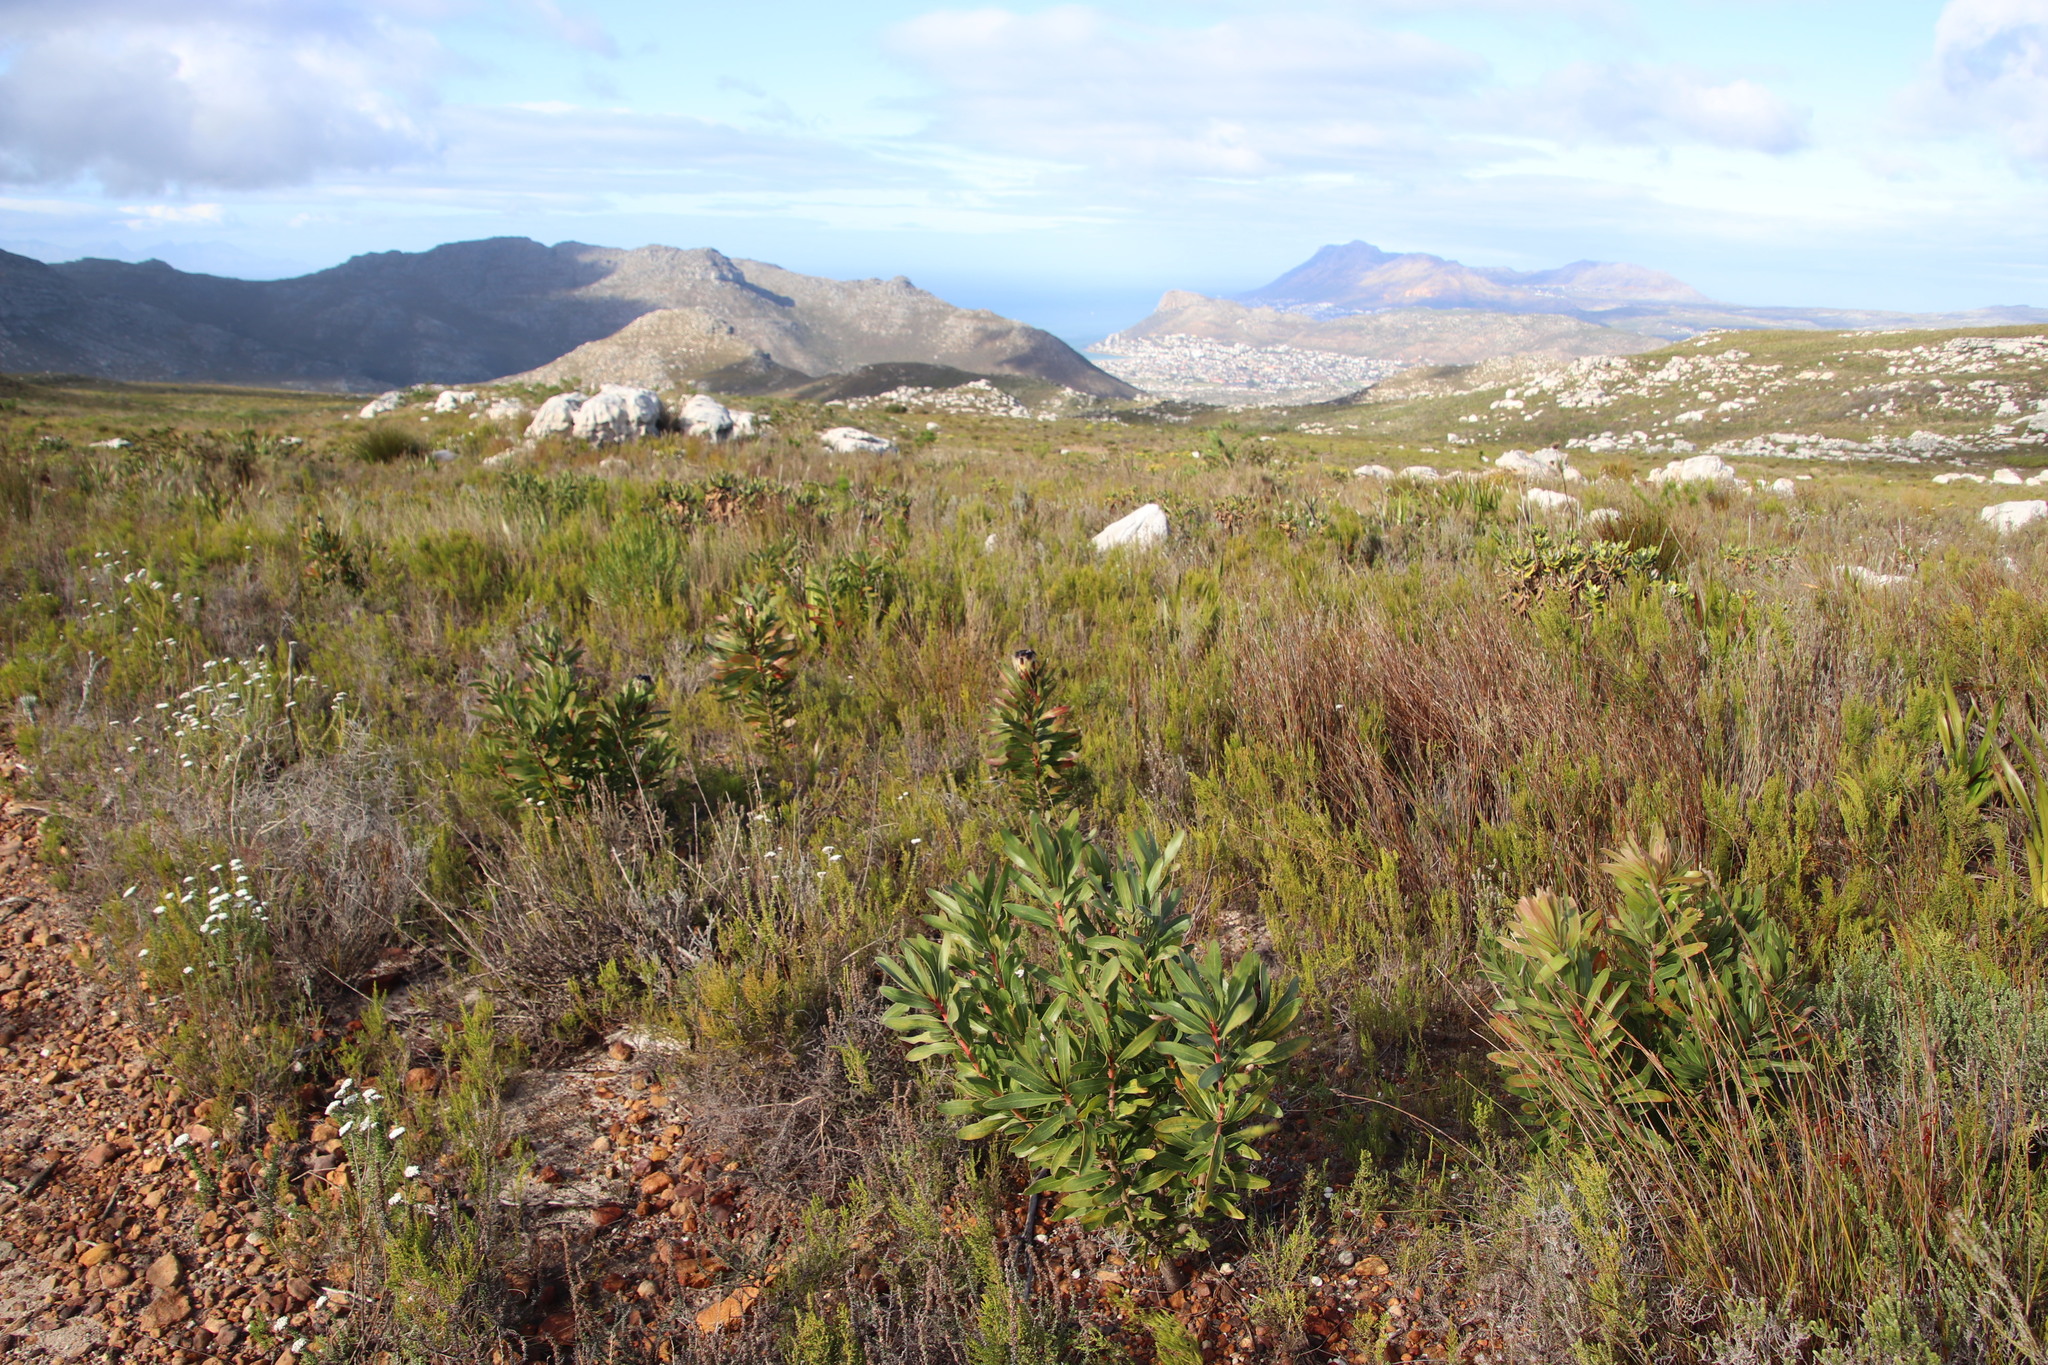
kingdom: Plantae
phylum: Tracheophyta
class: Magnoliopsida
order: Proteales
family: Proteaceae
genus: Protea
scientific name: Protea lepidocarpodendron
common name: Black-bearded protea
